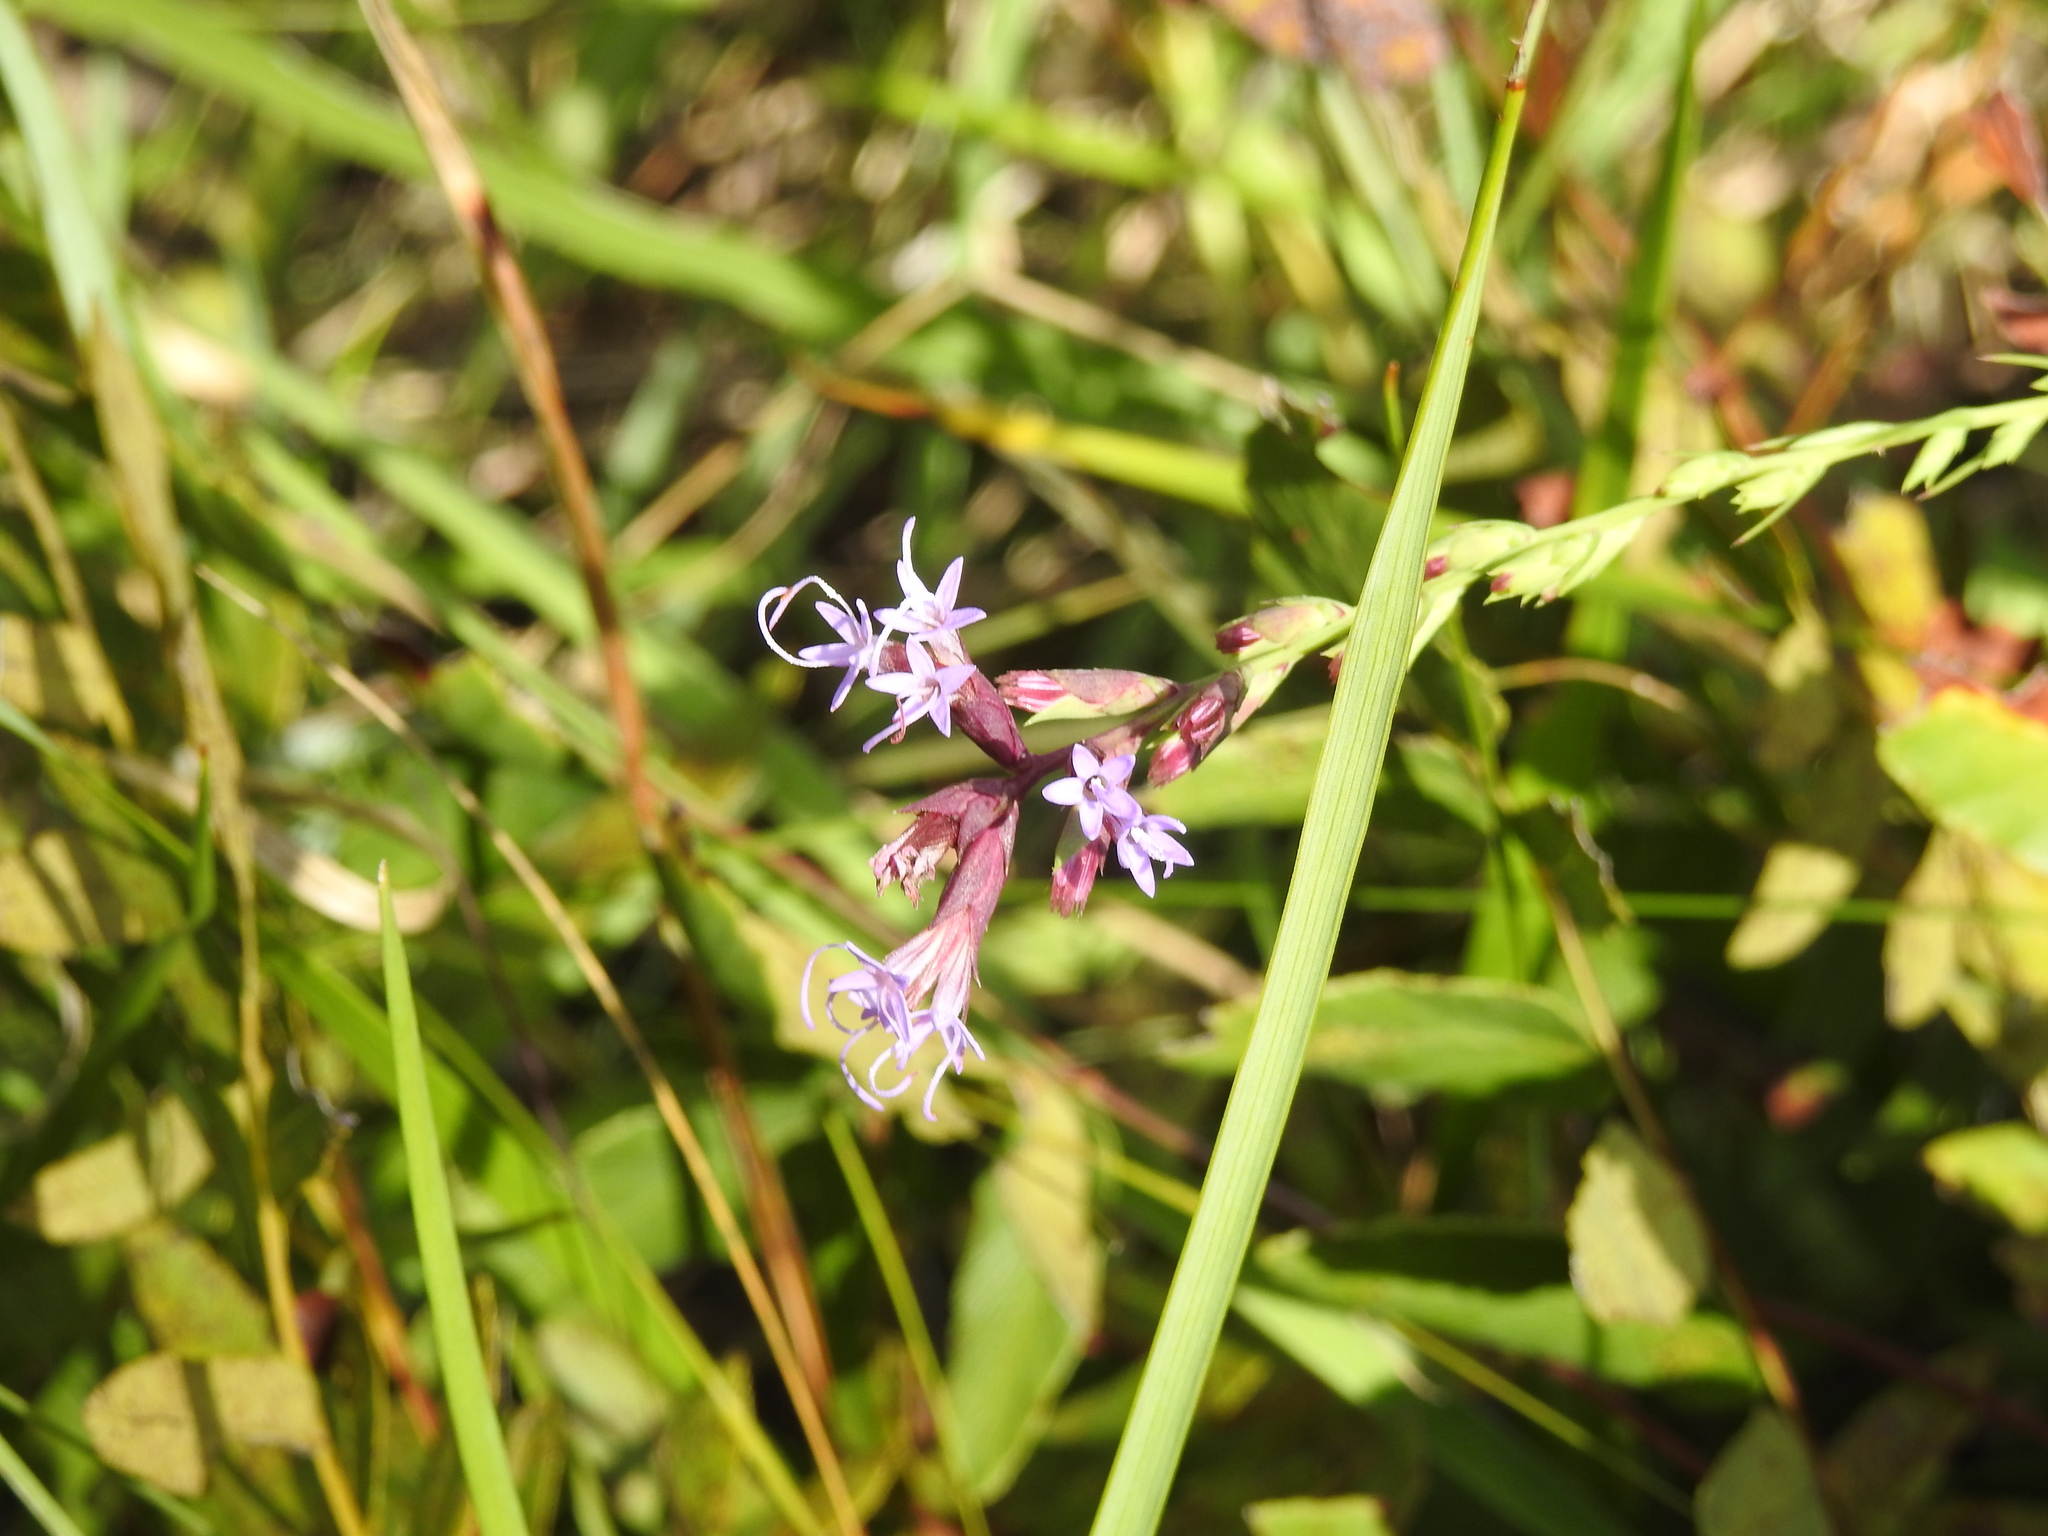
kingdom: Plantae
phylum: Tracheophyta
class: Magnoliopsida
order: Asterales
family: Asteraceae
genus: Liatris
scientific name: Liatris acidota
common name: Gulf coast gayfeather
